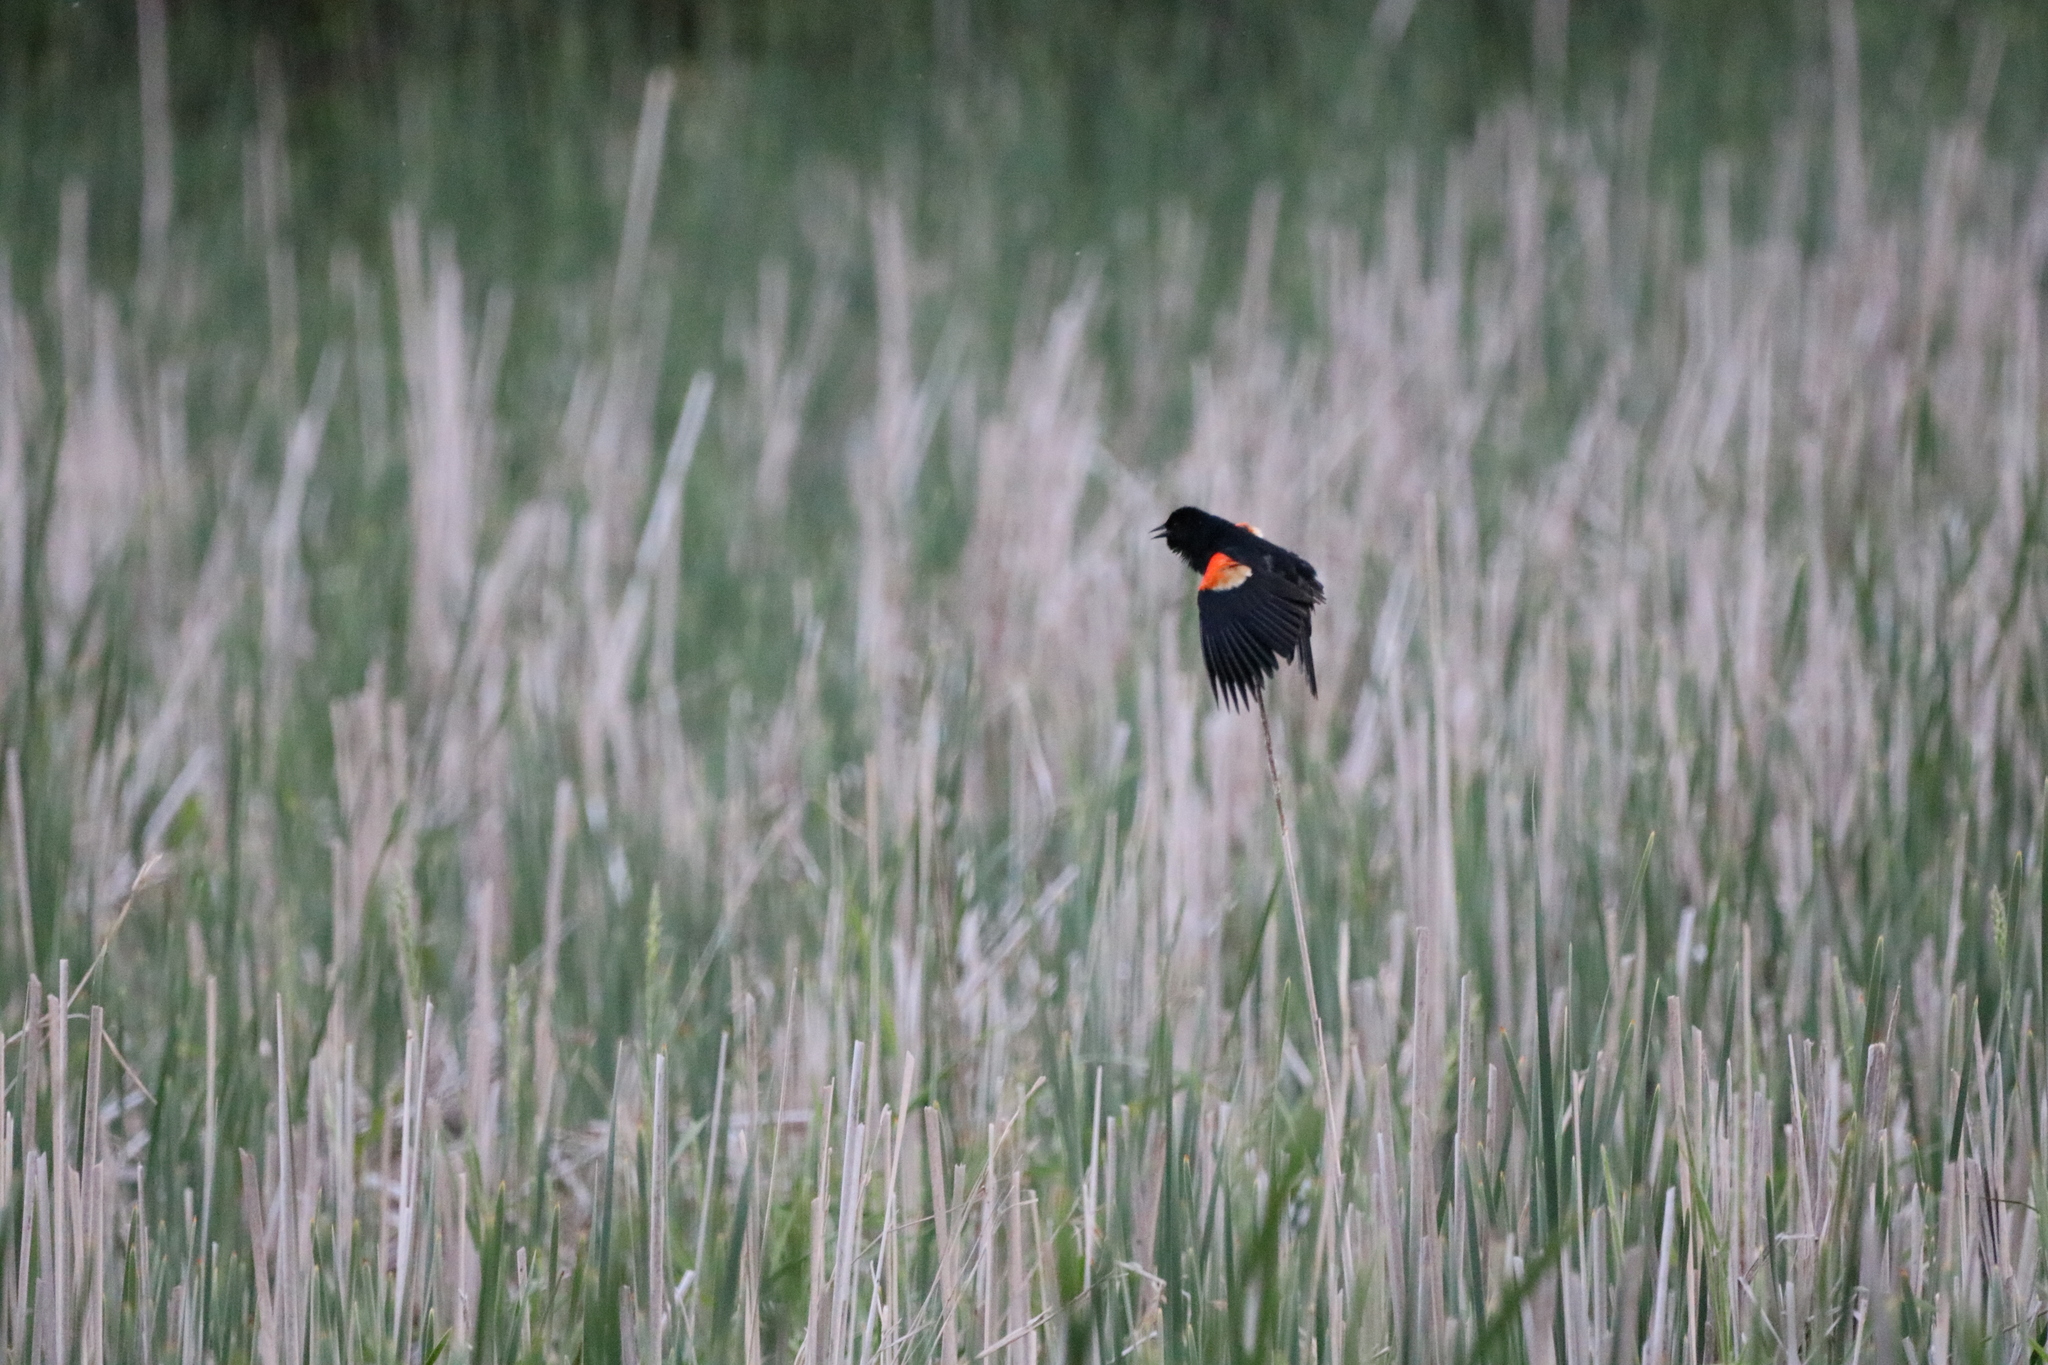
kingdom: Animalia
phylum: Chordata
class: Aves
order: Passeriformes
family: Icteridae
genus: Agelaius
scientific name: Agelaius phoeniceus
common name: Red-winged blackbird
